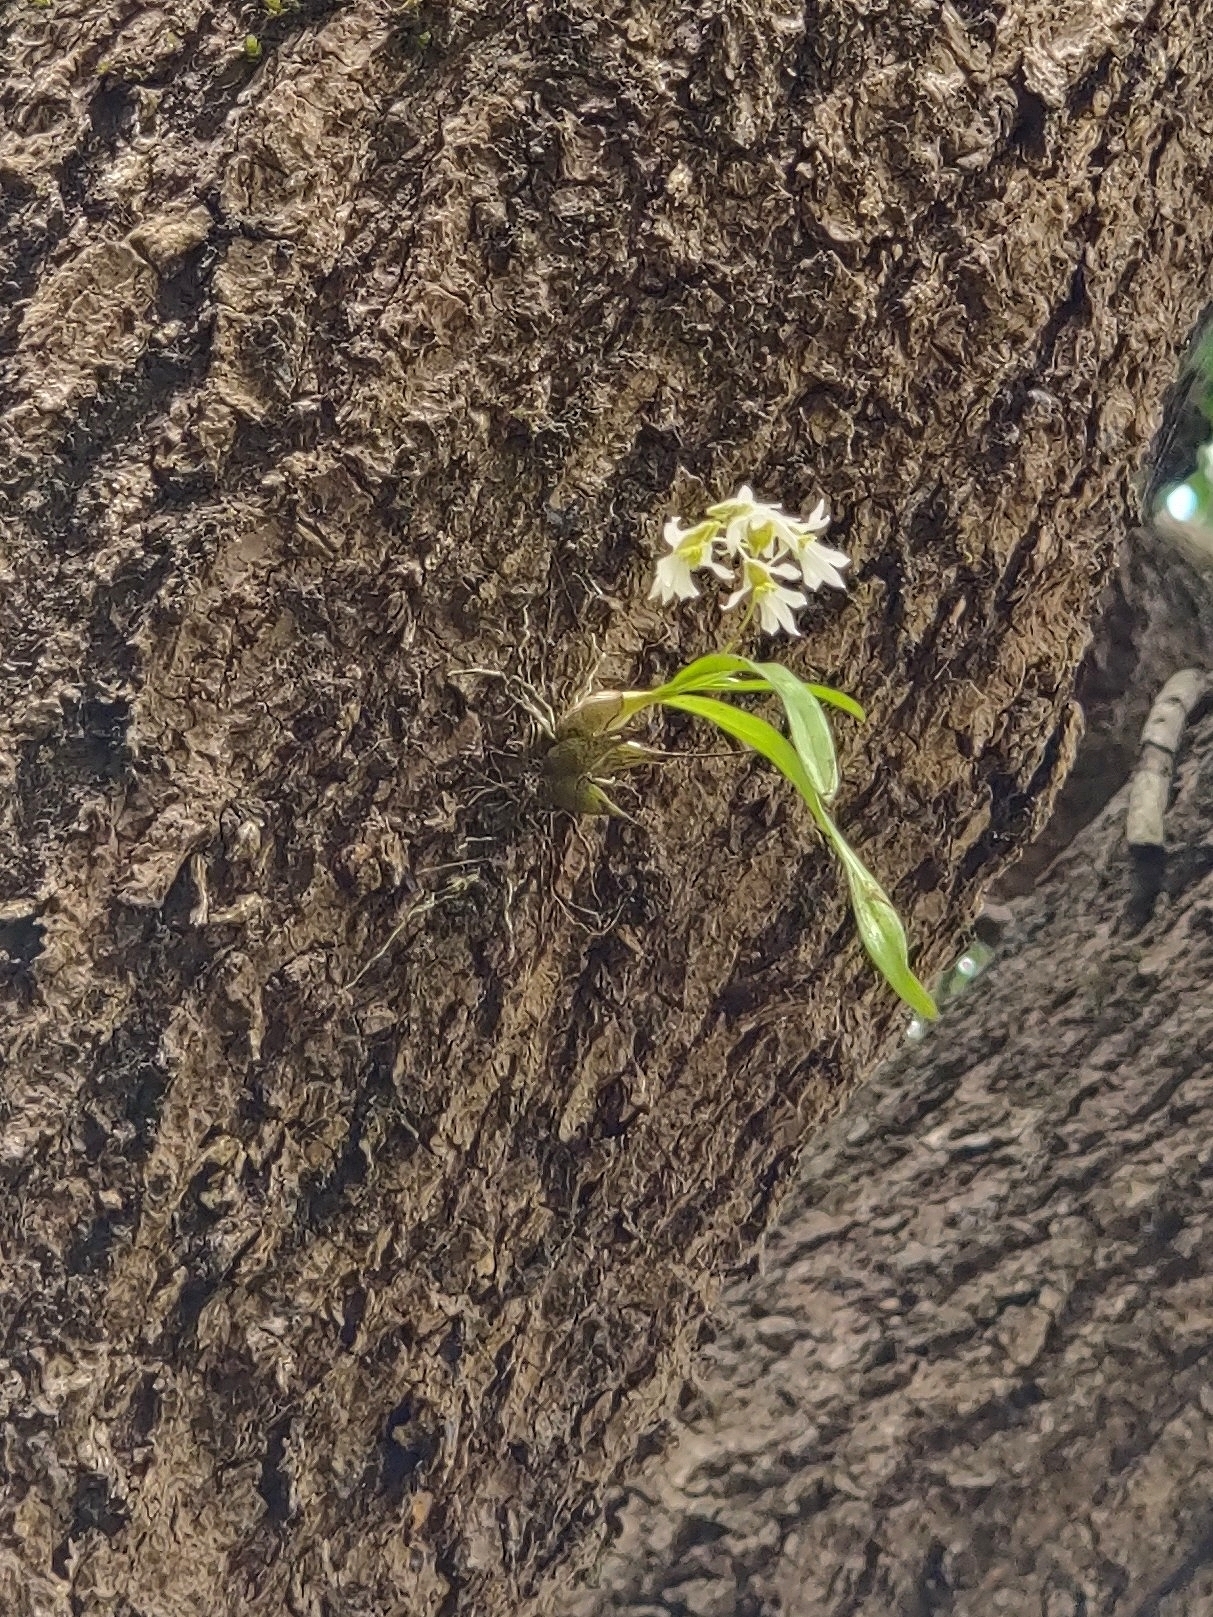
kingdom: Plantae
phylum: Tracheophyta
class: Liliopsida
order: Asparagales
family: Orchidaceae
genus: Dendrobium
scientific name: Dendrobium nanum
